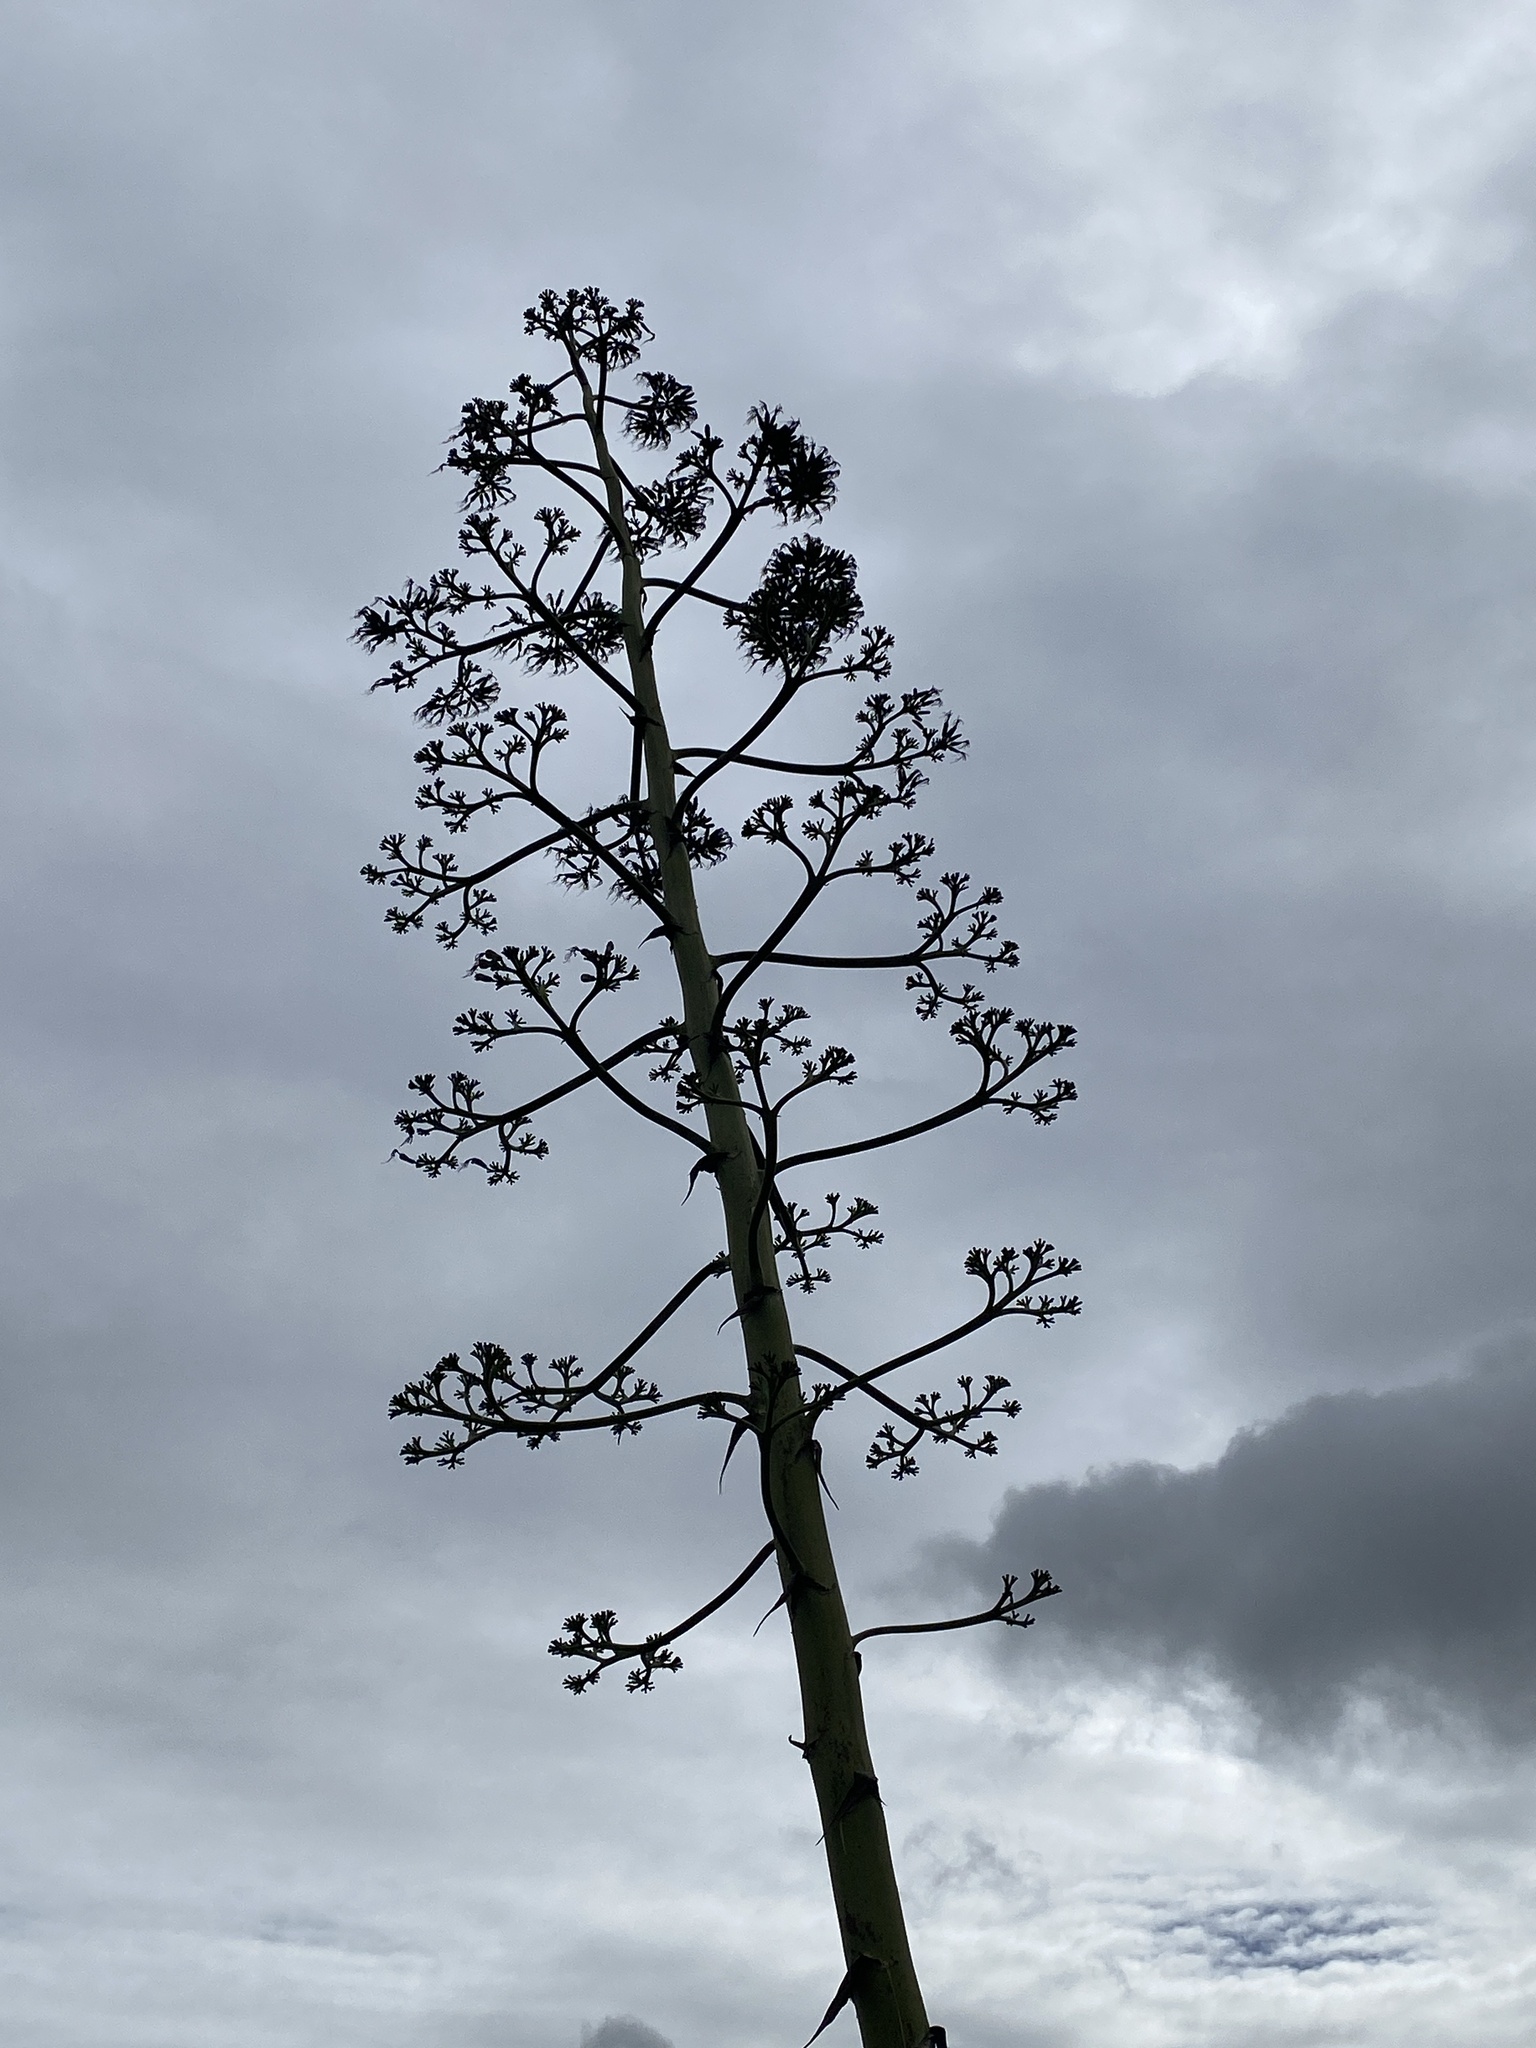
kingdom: Plantae
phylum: Tracheophyta
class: Liliopsida
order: Asparagales
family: Asparagaceae
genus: Agave
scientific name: Agave americana
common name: Centuryplant
